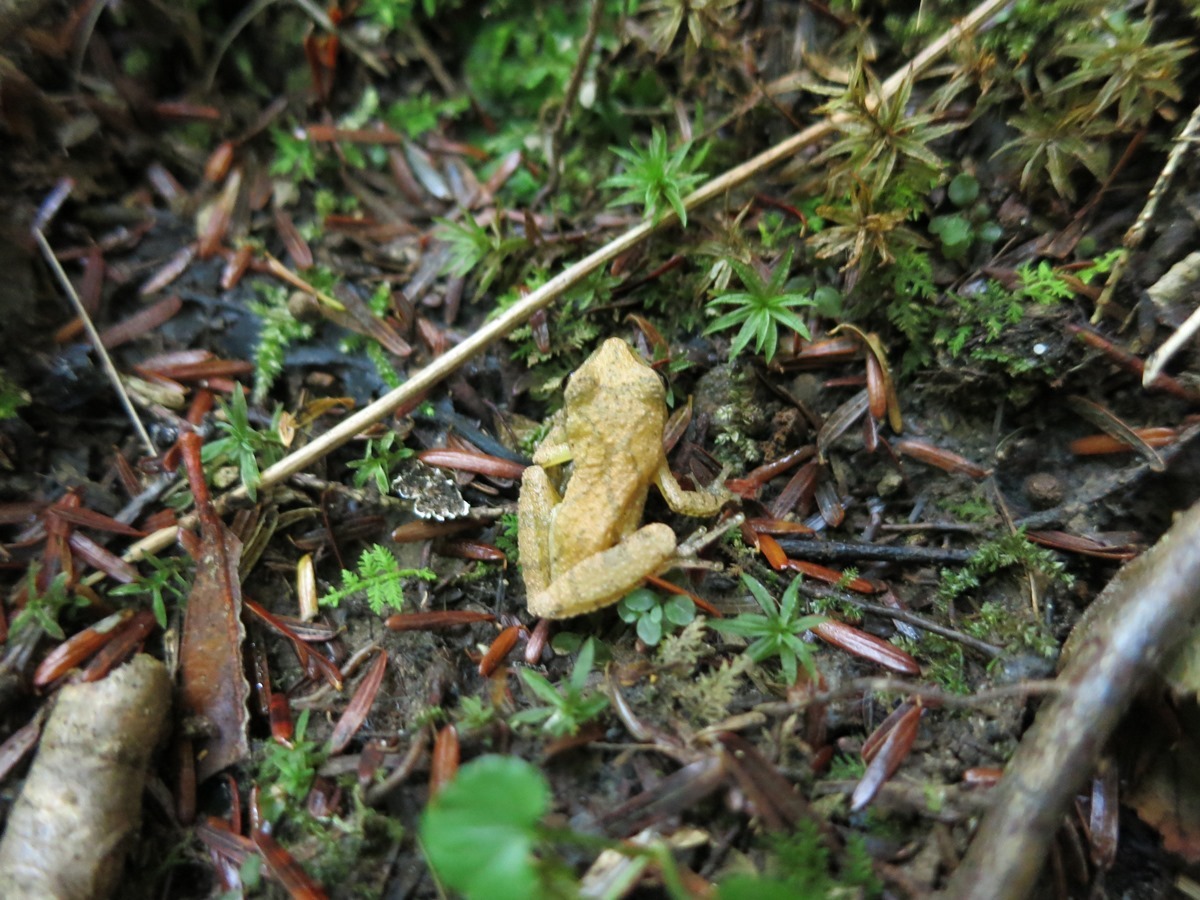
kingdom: Animalia
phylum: Chordata
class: Amphibia
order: Anura
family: Hylidae
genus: Pseudacris
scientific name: Pseudacris crucifer
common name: Spring peeper
